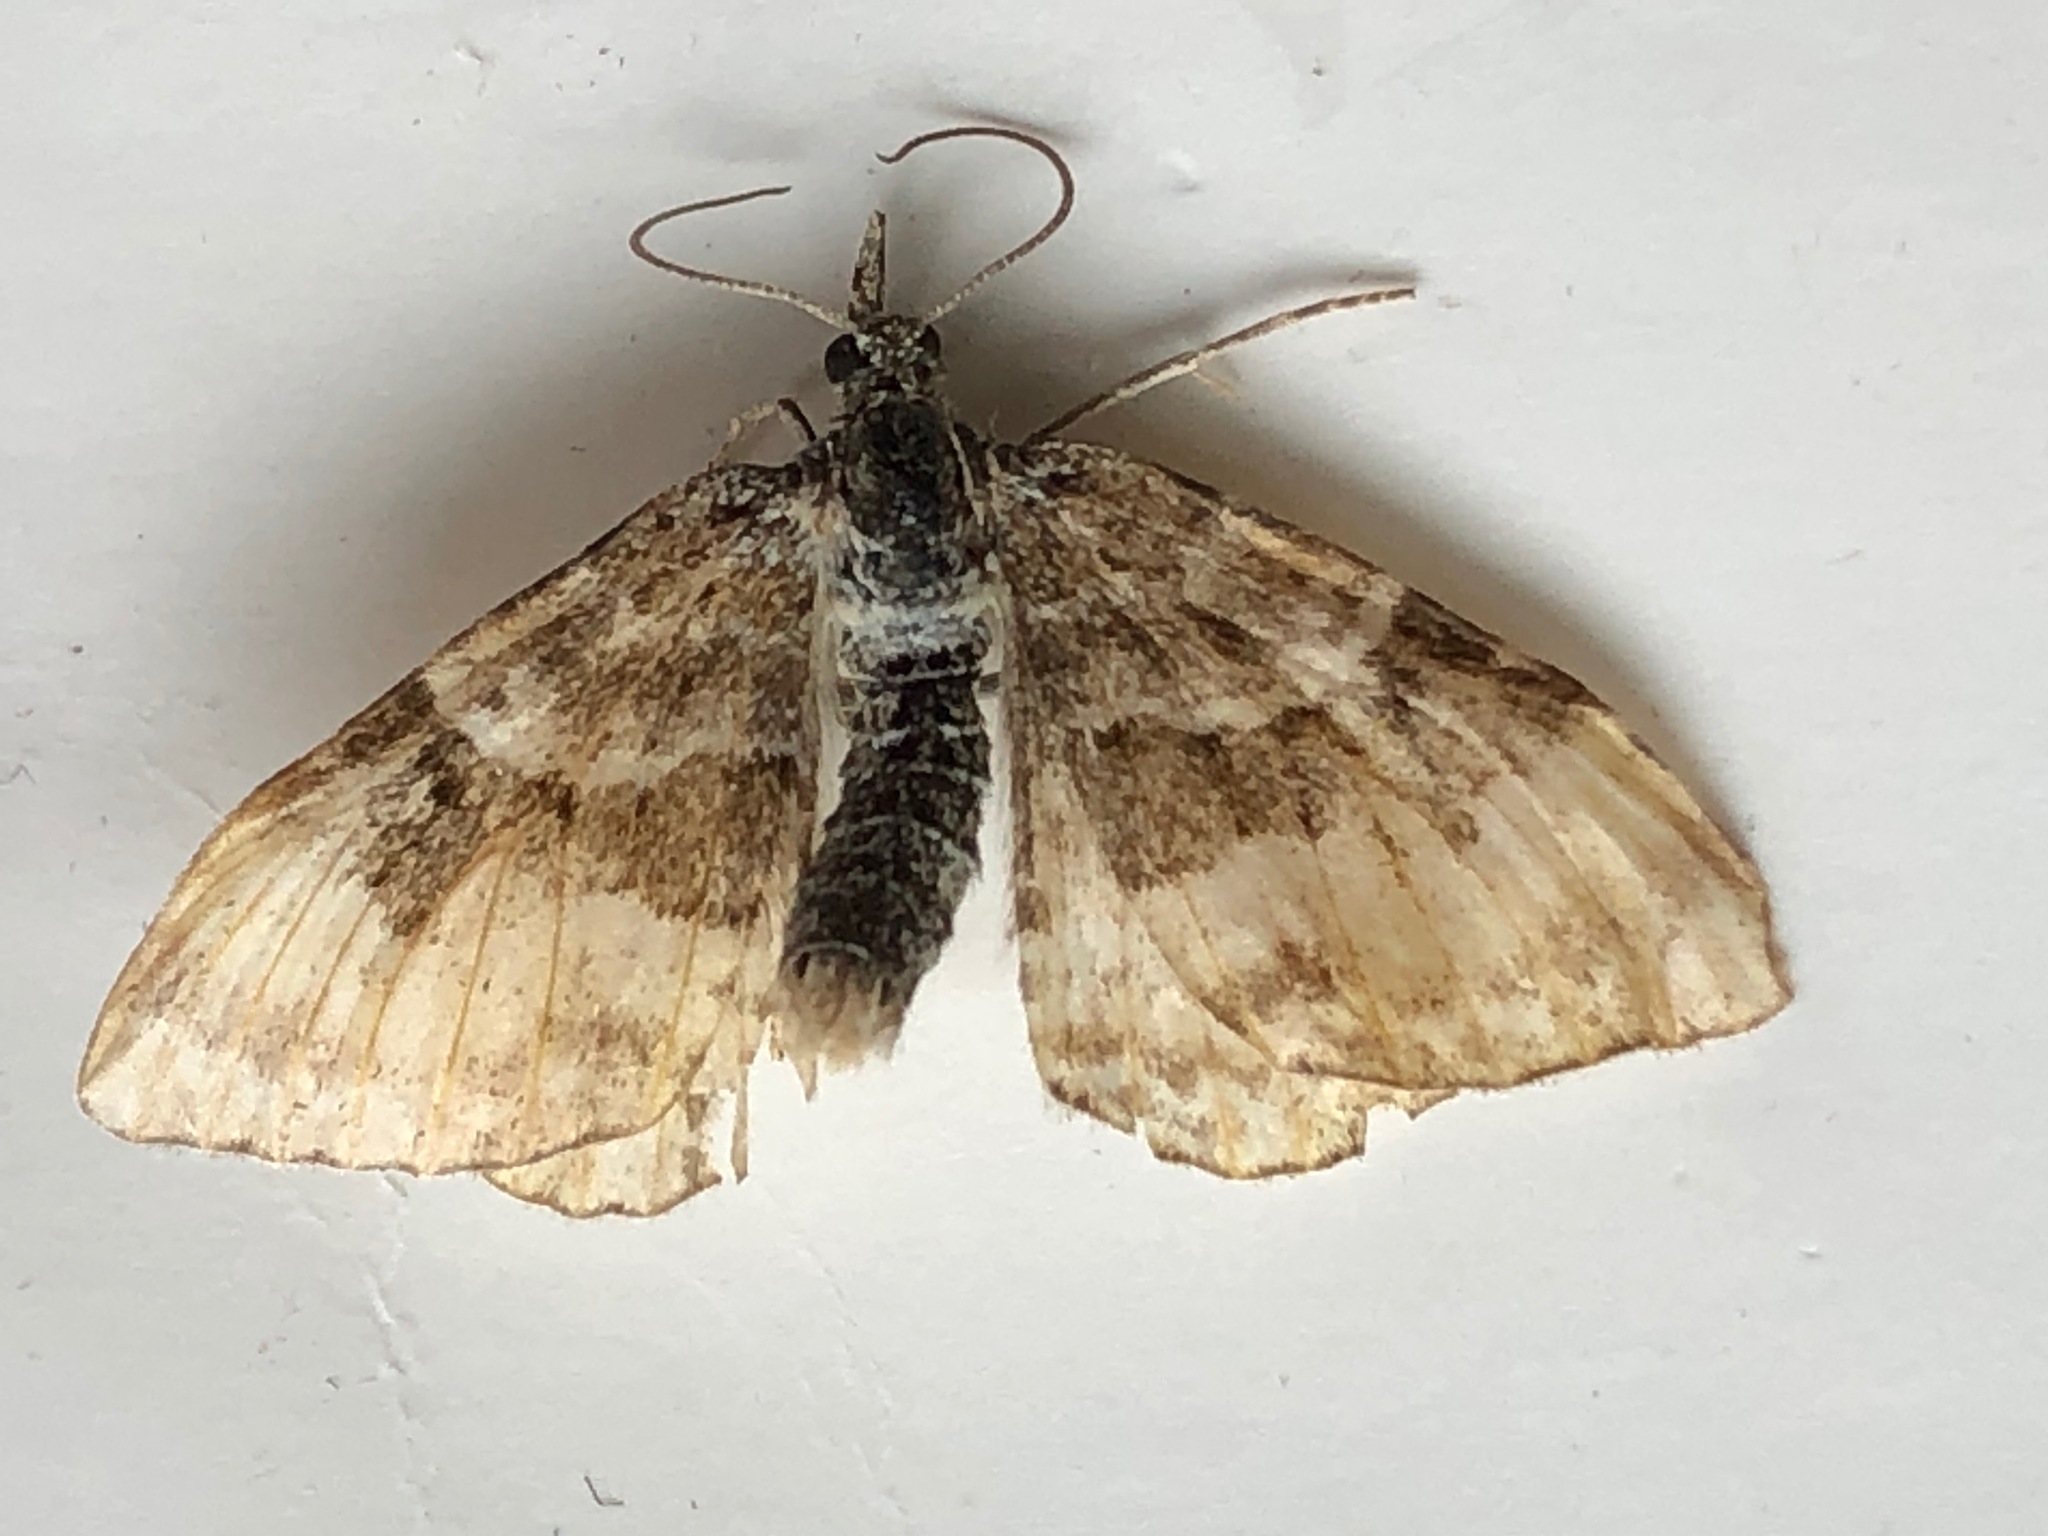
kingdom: Animalia
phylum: Arthropoda
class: Insecta
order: Lepidoptera
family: Geometridae
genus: Epirrhoe
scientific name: Epirrhoe alternata
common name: Common carpet
